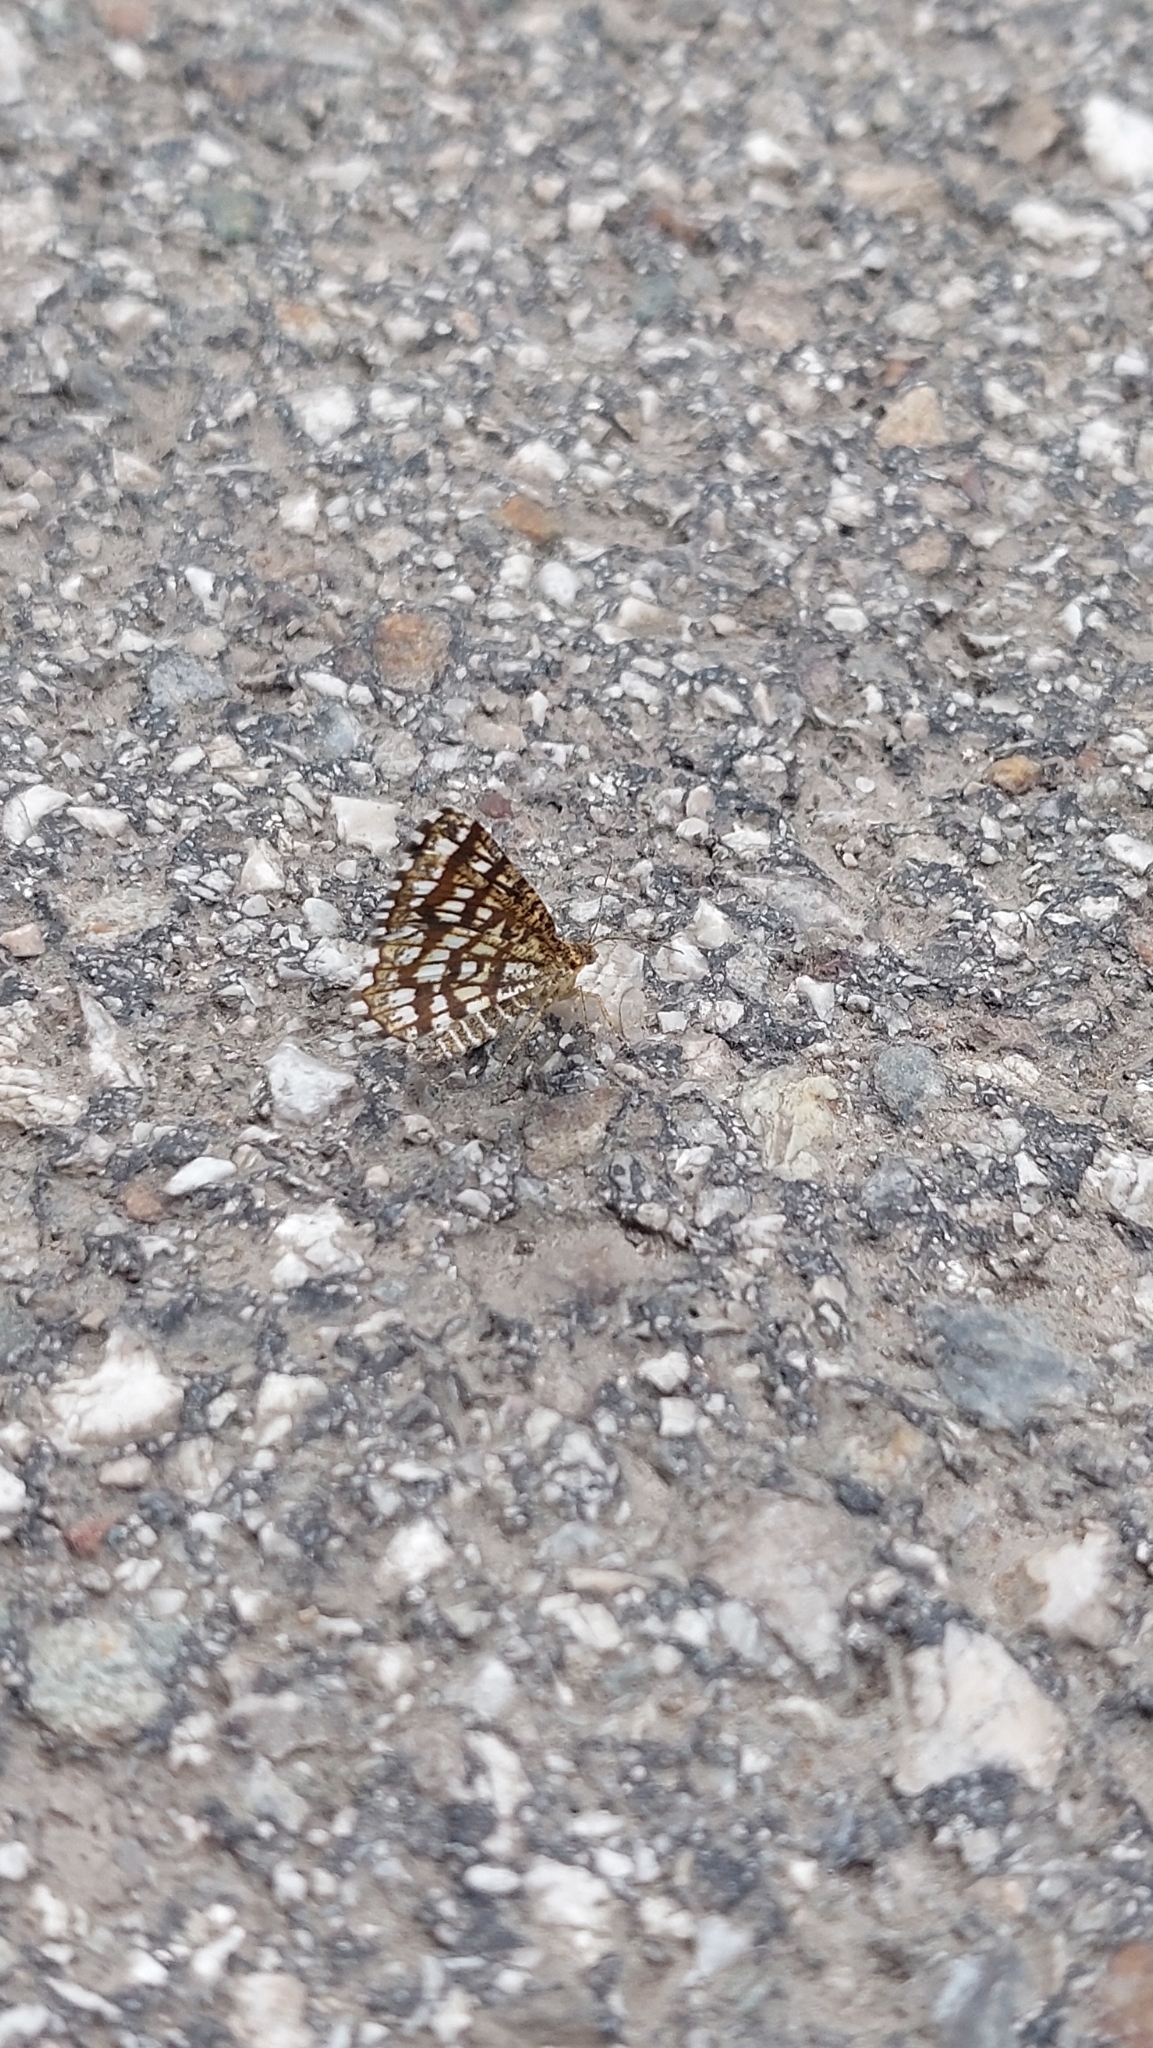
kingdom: Animalia
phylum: Arthropoda
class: Insecta
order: Lepidoptera
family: Geometridae
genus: Chiasmia
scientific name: Chiasmia clathrata
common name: Latticed heath
